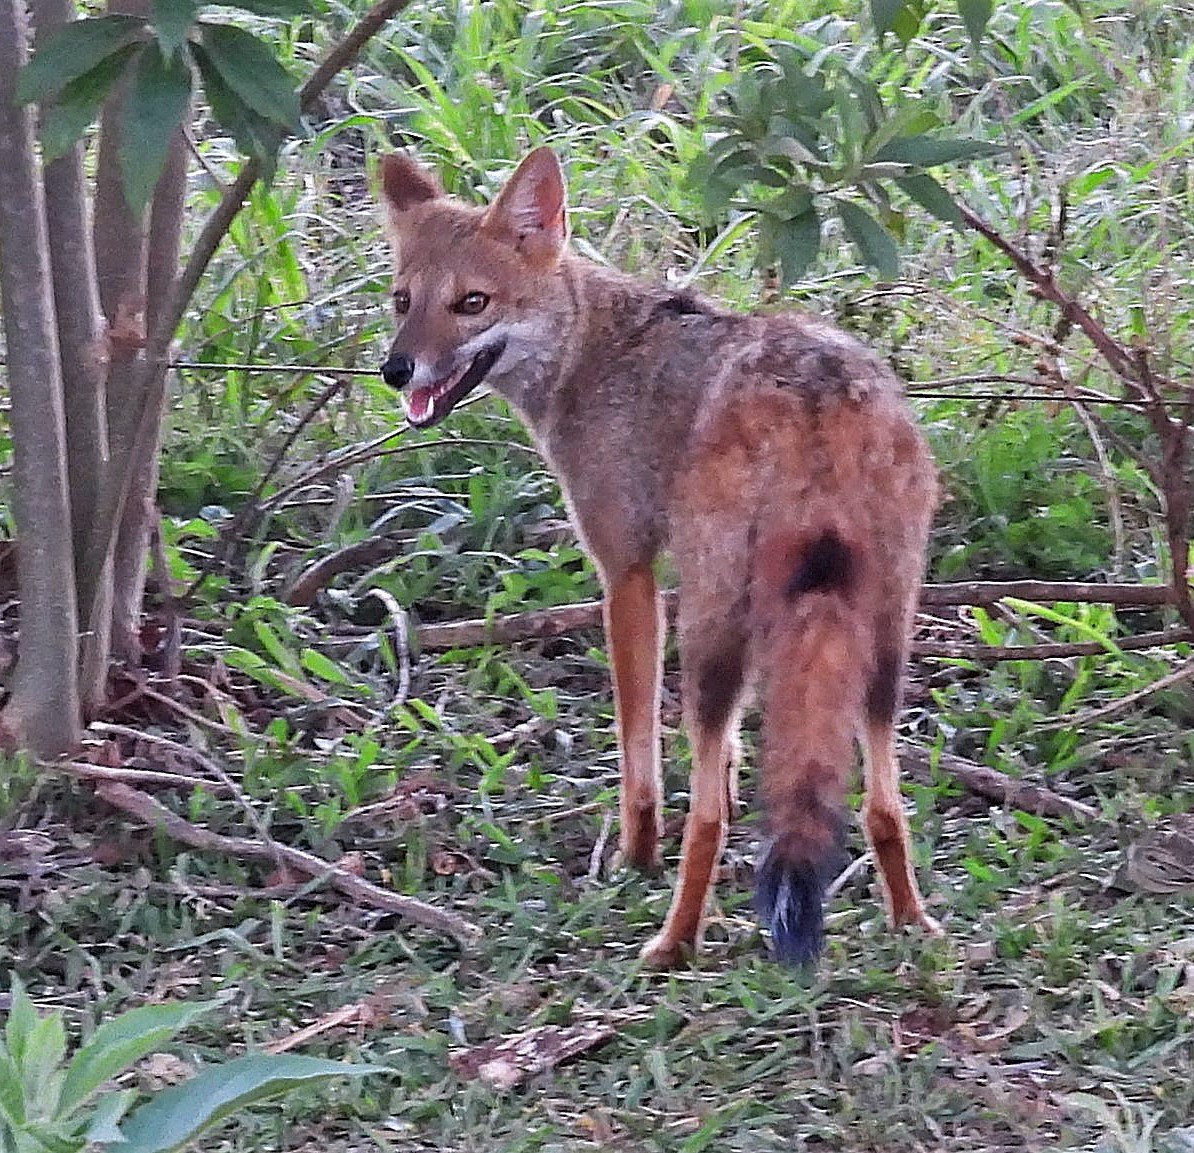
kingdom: Animalia
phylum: Chordata
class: Mammalia
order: Carnivora
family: Canidae
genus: Lycalopex
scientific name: Lycalopex gymnocercus
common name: Pampas fox
